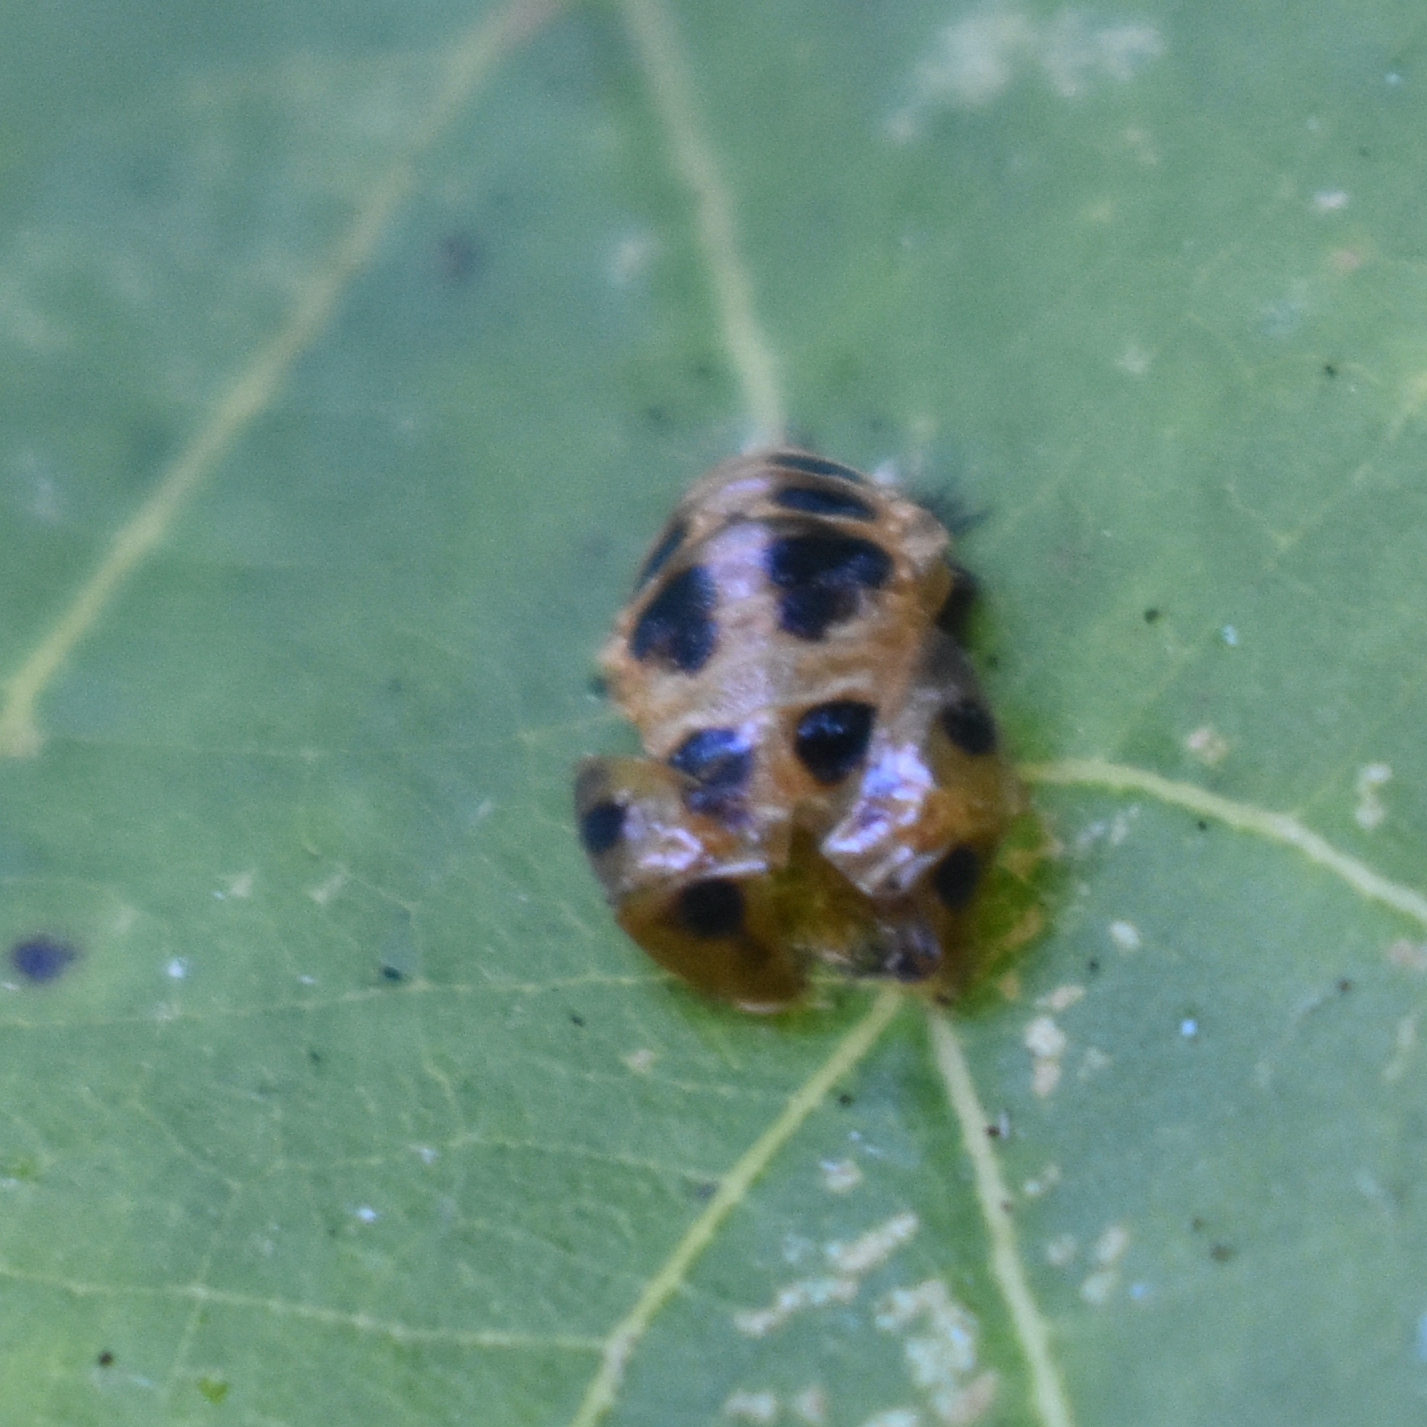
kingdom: Animalia
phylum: Arthropoda
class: Insecta
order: Coleoptera
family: Coccinellidae
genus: Harmonia
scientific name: Harmonia axyridis
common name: Harlequin ladybird
